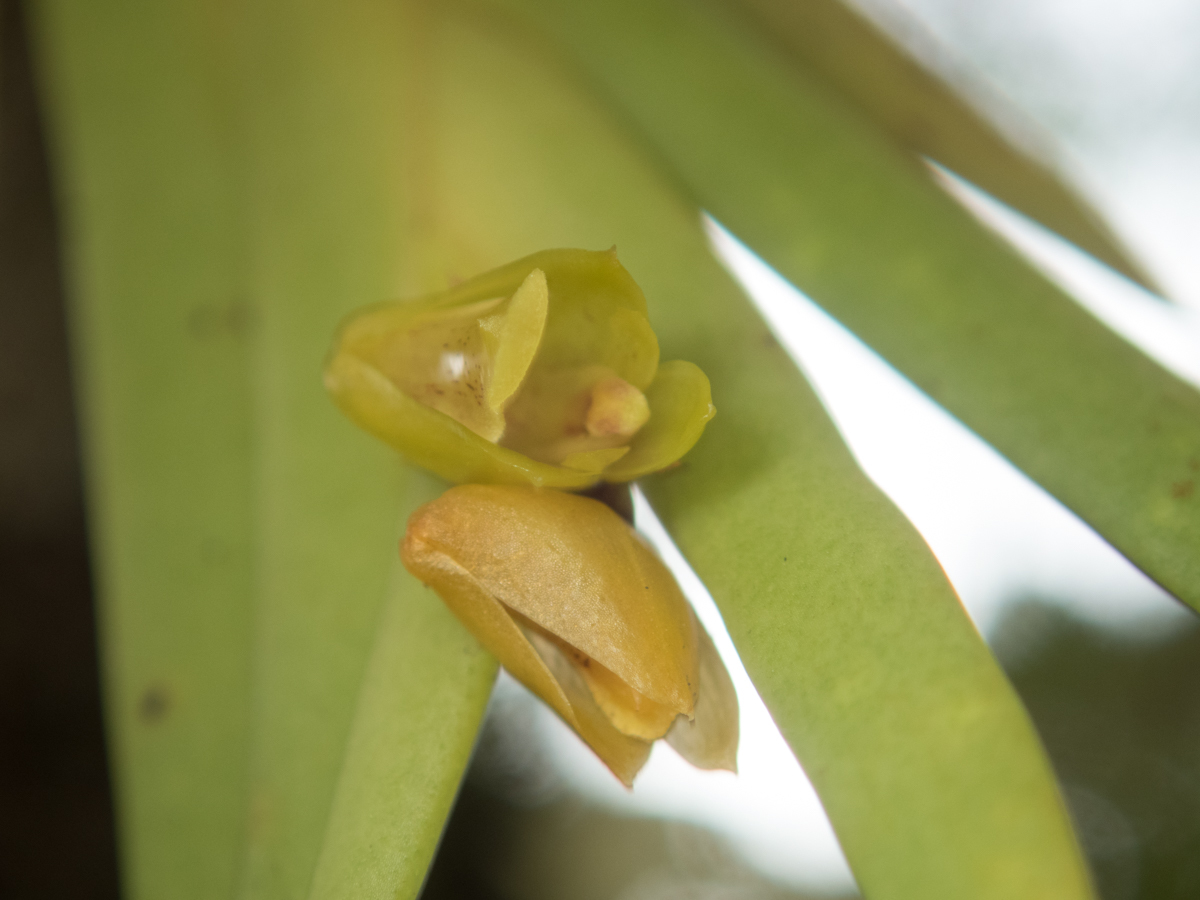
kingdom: Plantae
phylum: Tracheophyta
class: Liliopsida
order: Asparagales
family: Orchidaceae
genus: Oxystophyllum
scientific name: Oxystophyllum carnosum
